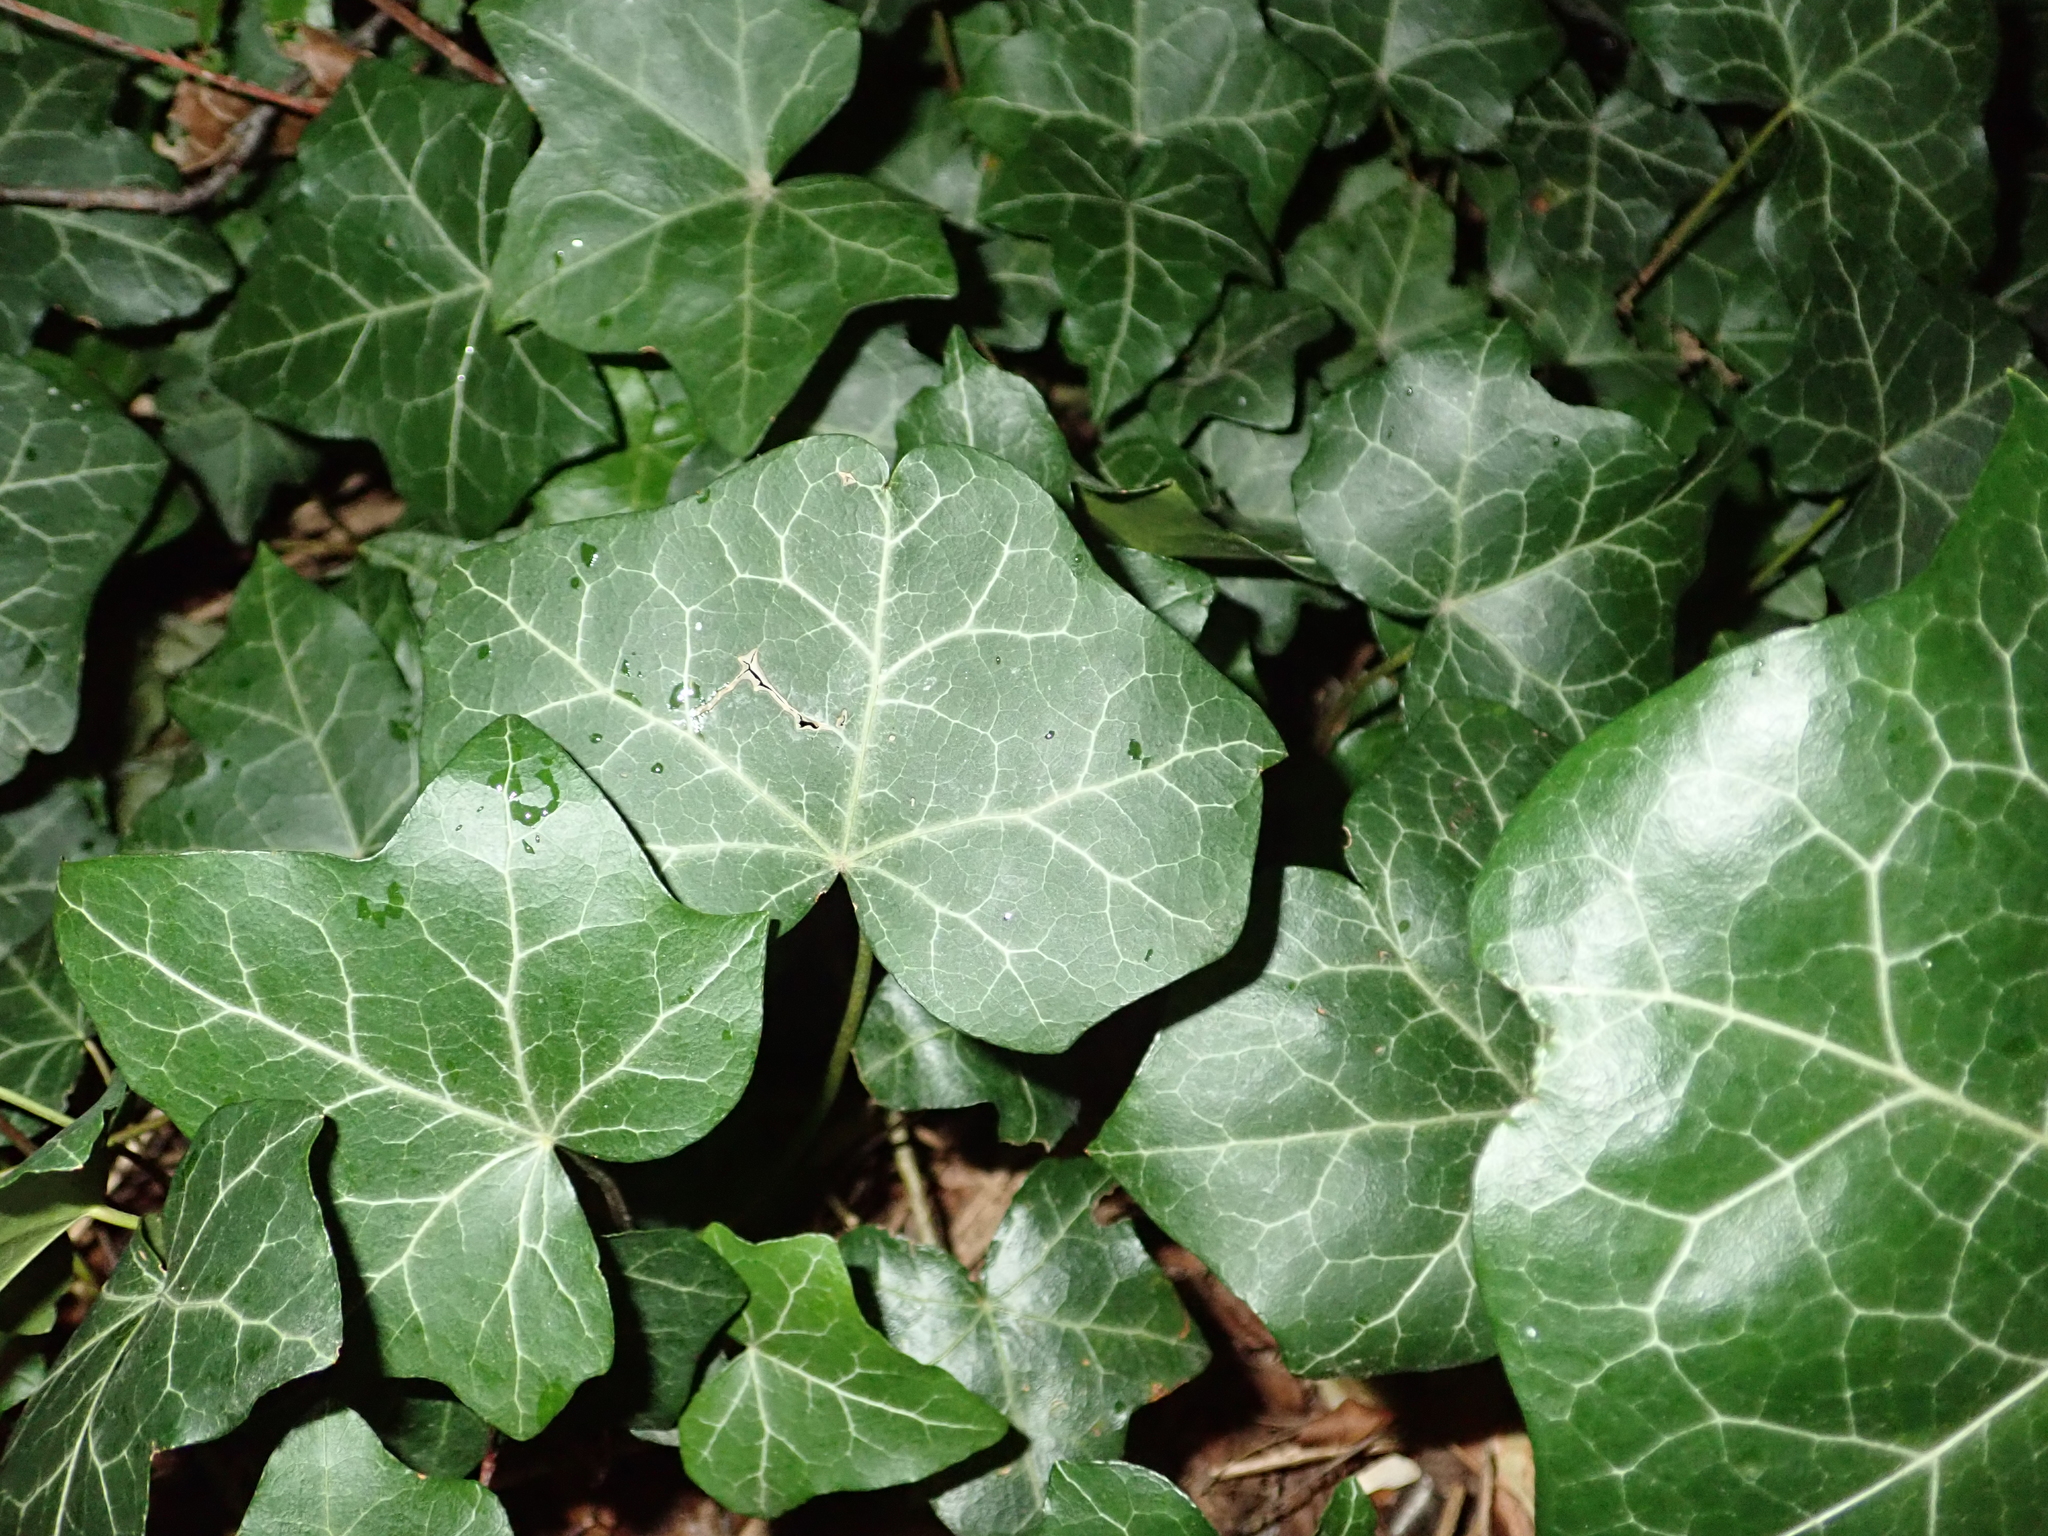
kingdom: Plantae
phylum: Tracheophyta
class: Magnoliopsida
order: Apiales
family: Araliaceae
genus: Hedera
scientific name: Hedera helix
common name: Ivy
